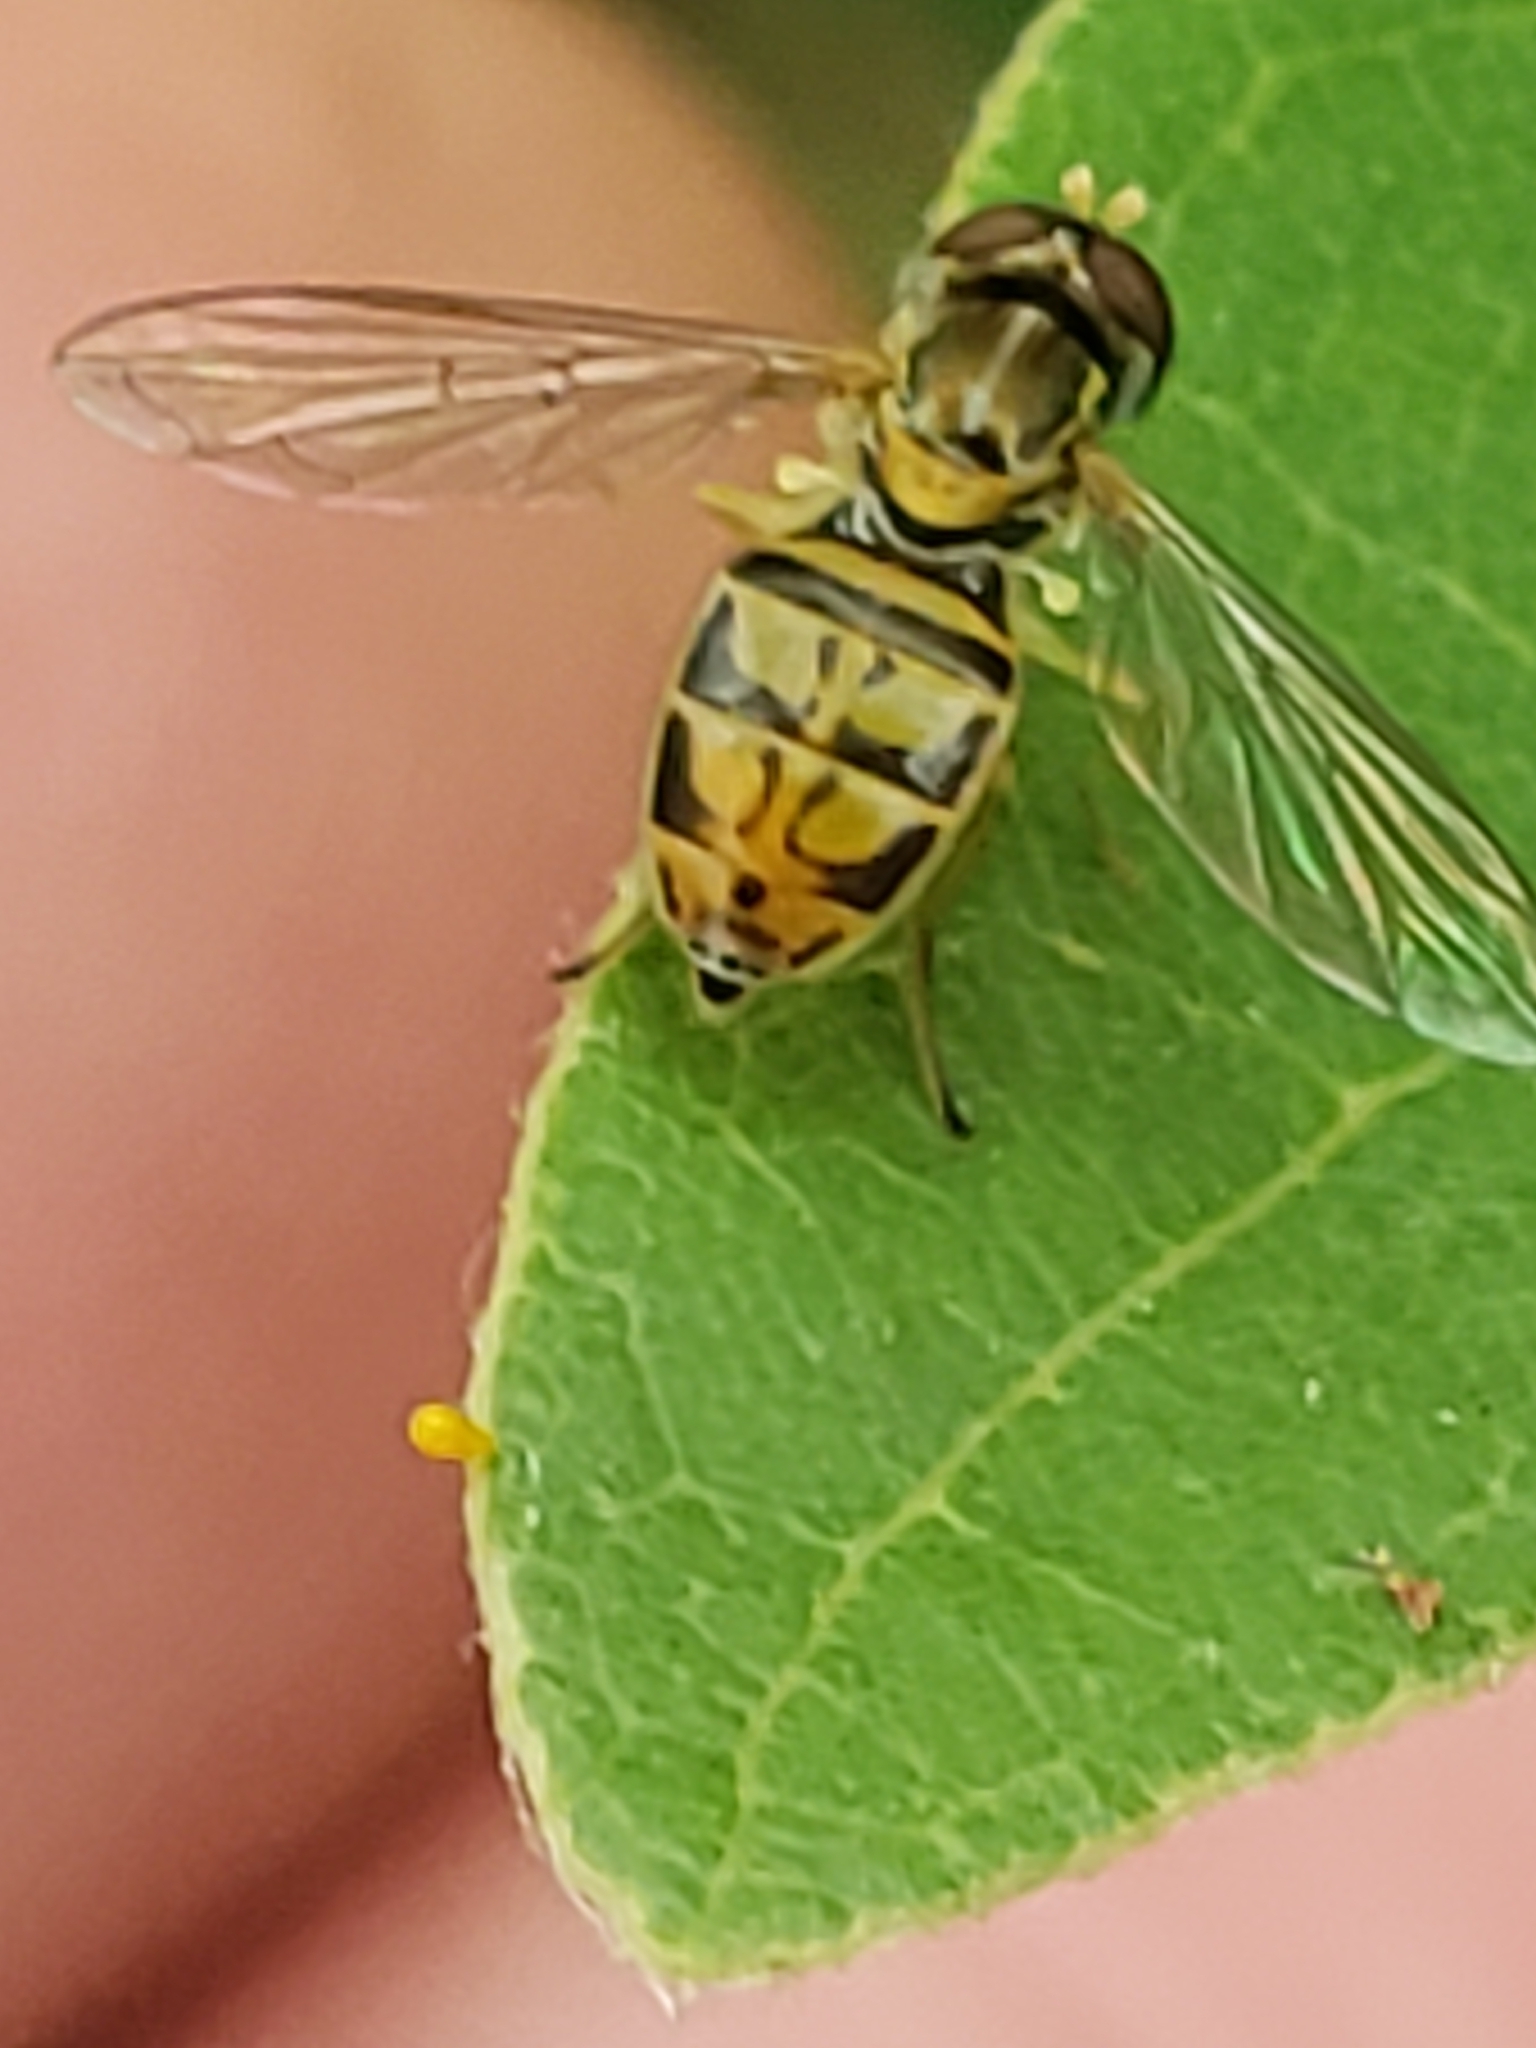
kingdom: Animalia
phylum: Arthropoda
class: Insecta
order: Diptera
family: Syrphidae
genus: Toxomerus
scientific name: Toxomerus marginatus
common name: Syrphid fly
